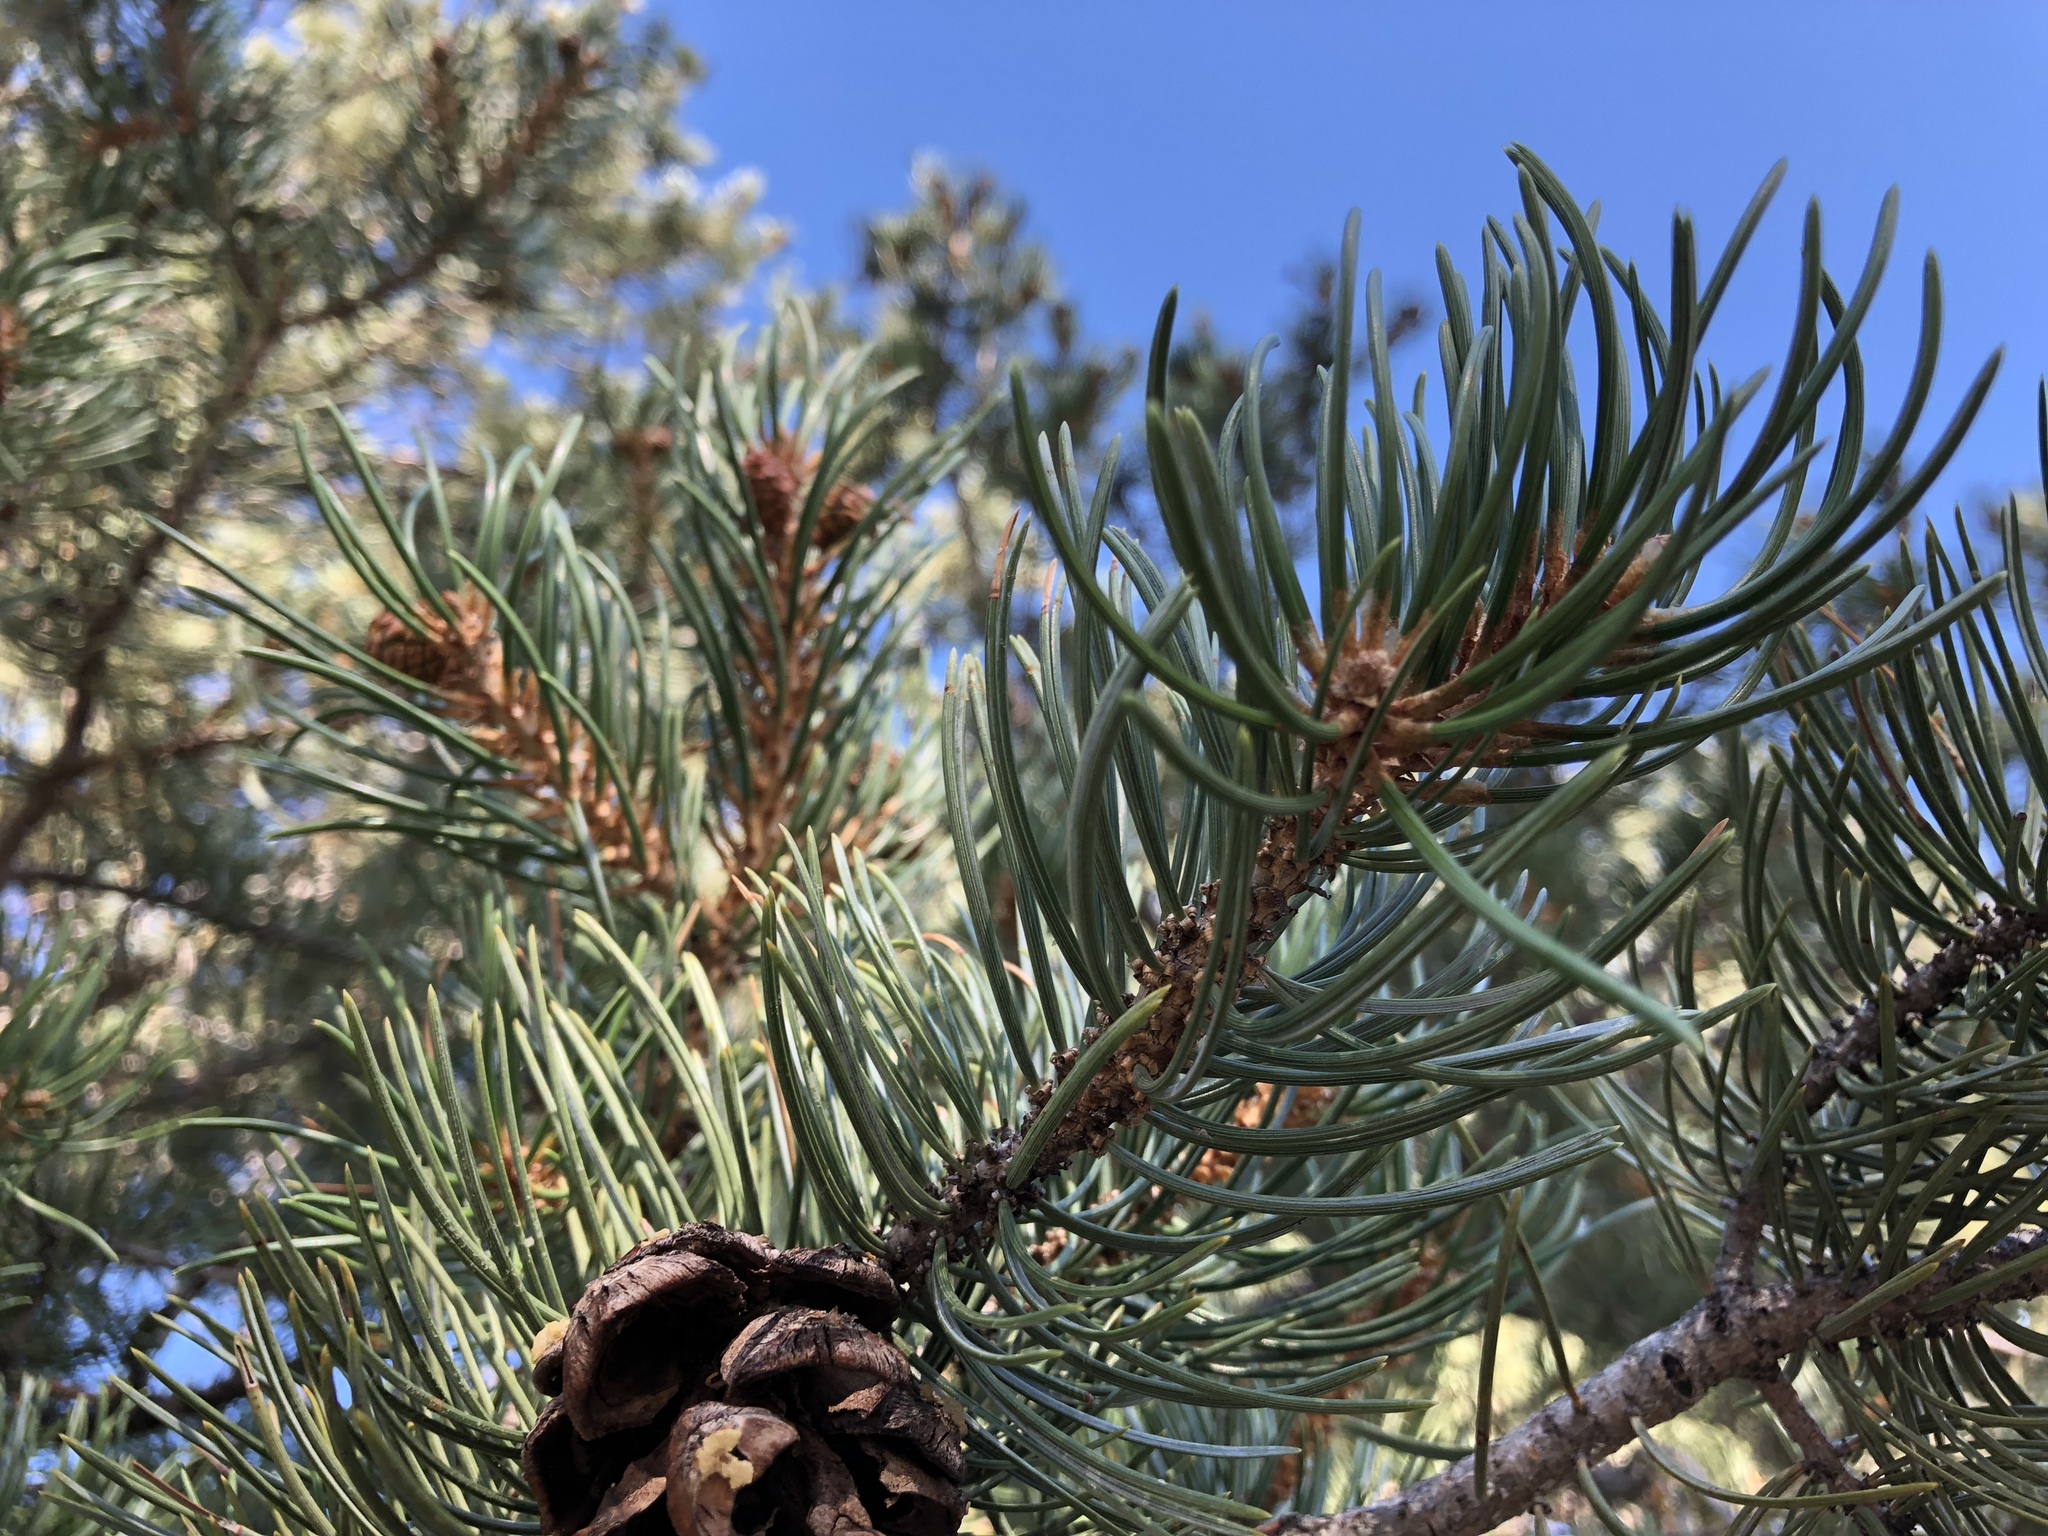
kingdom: Plantae
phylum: Tracheophyta
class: Pinopsida
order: Pinales
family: Pinaceae
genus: Pinus
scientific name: Pinus edulis
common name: Colorado pinyon
